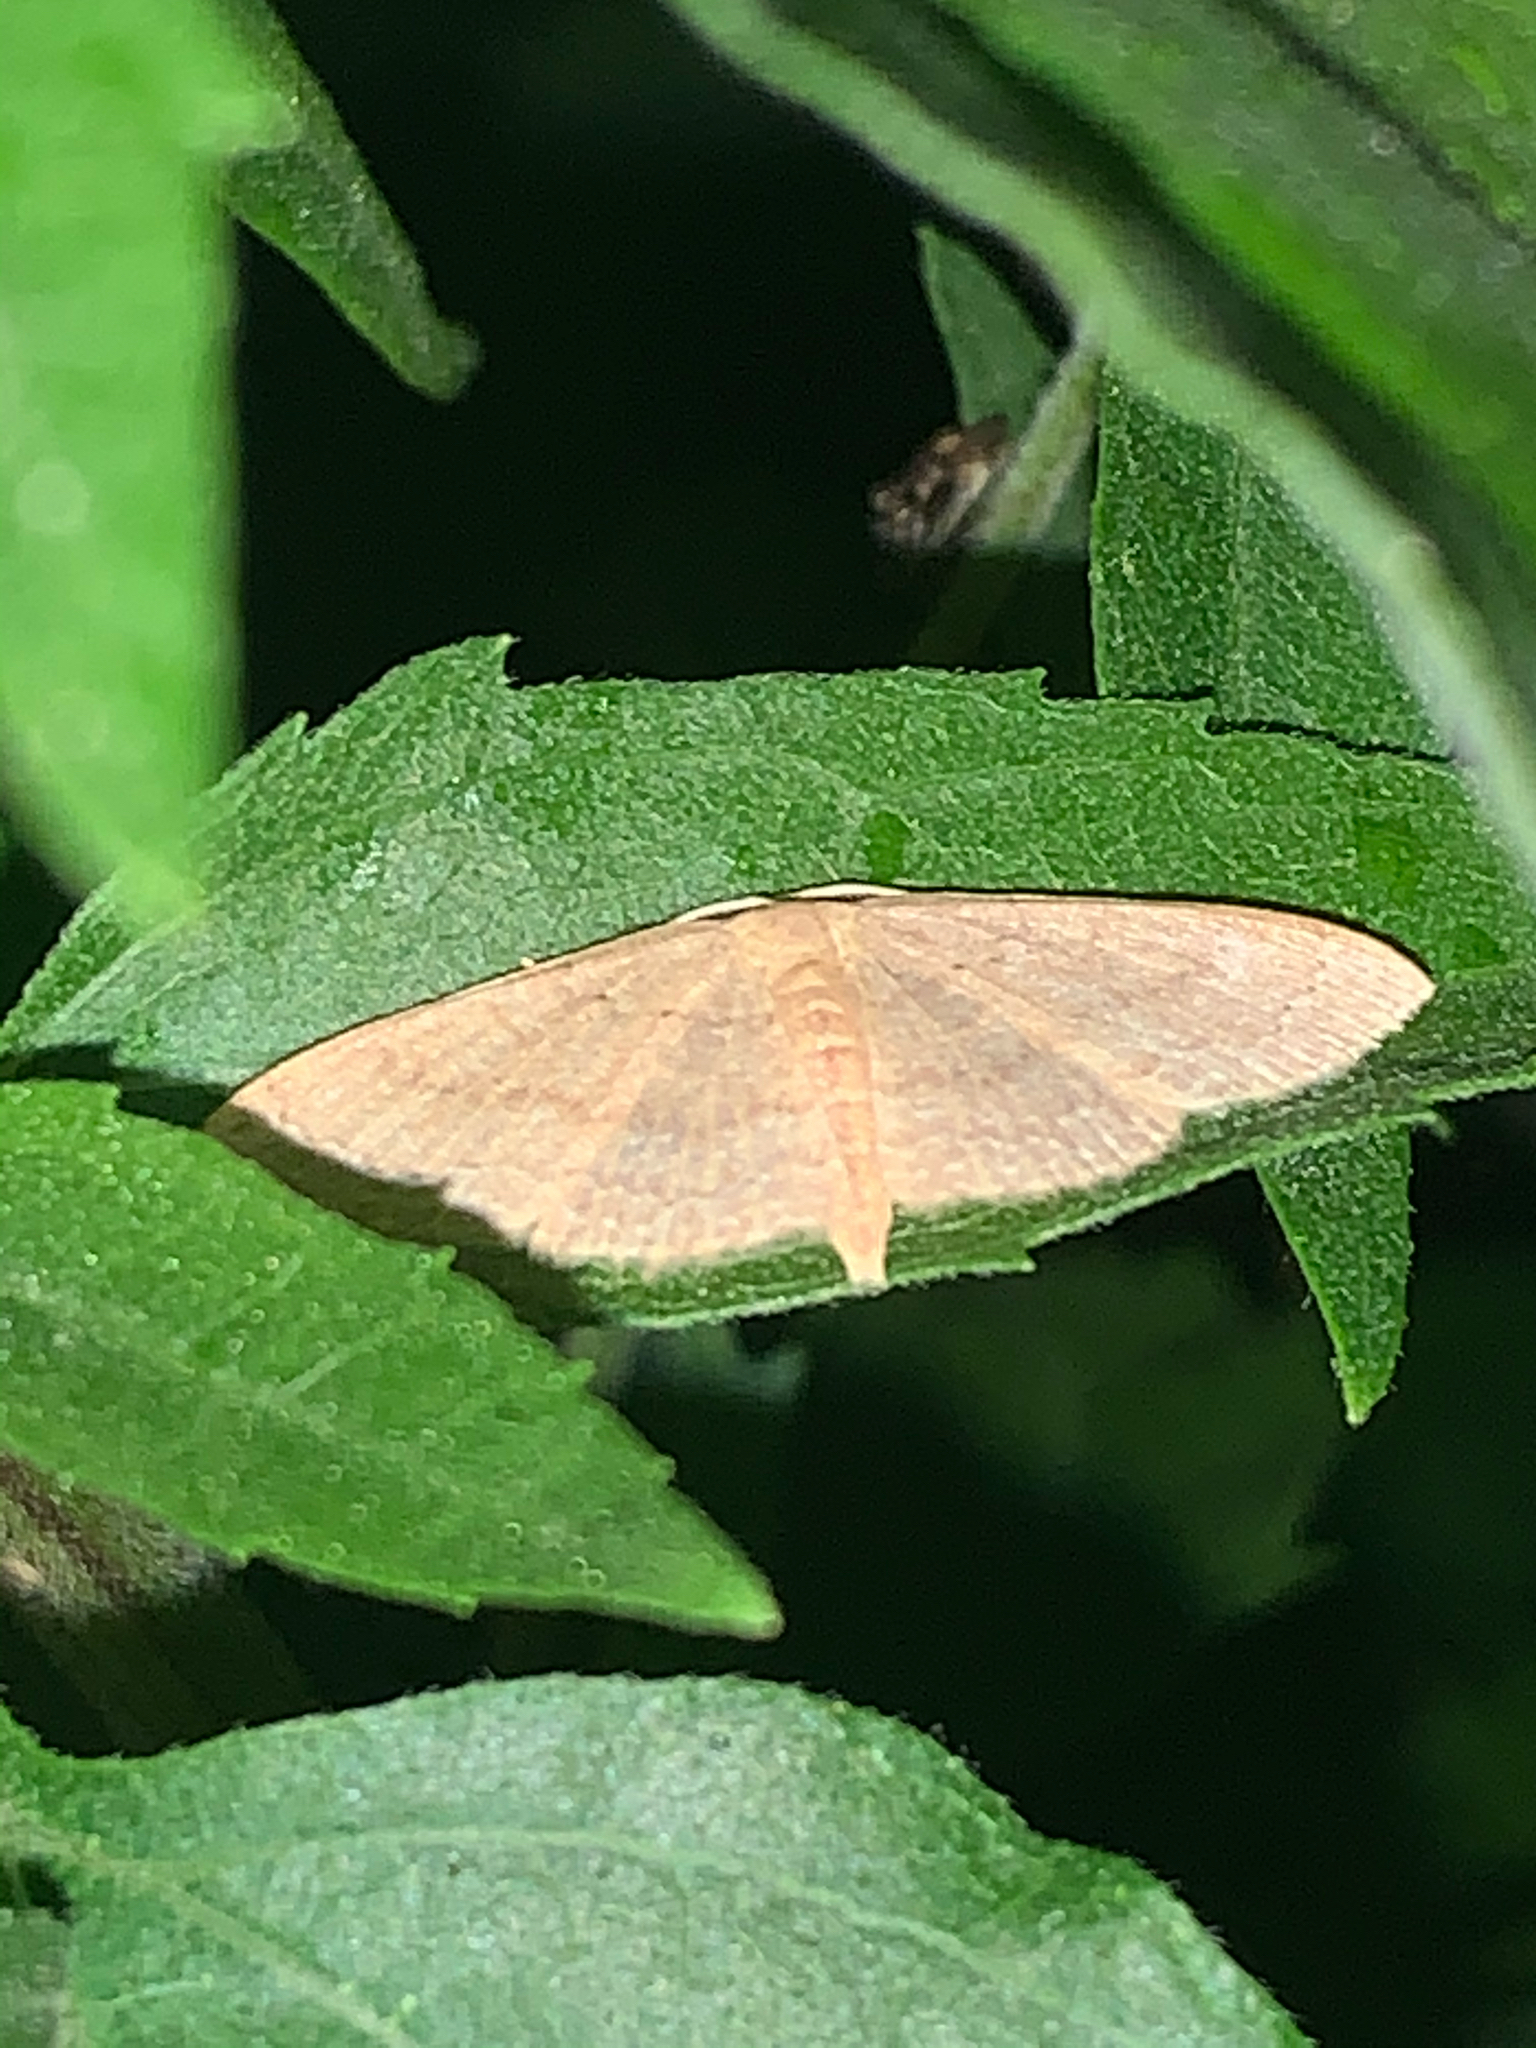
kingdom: Animalia
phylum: Arthropoda
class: Insecta
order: Lepidoptera
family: Geometridae
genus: Pleuroprucha
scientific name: Pleuroprucha insulsaria
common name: Common tan wave
